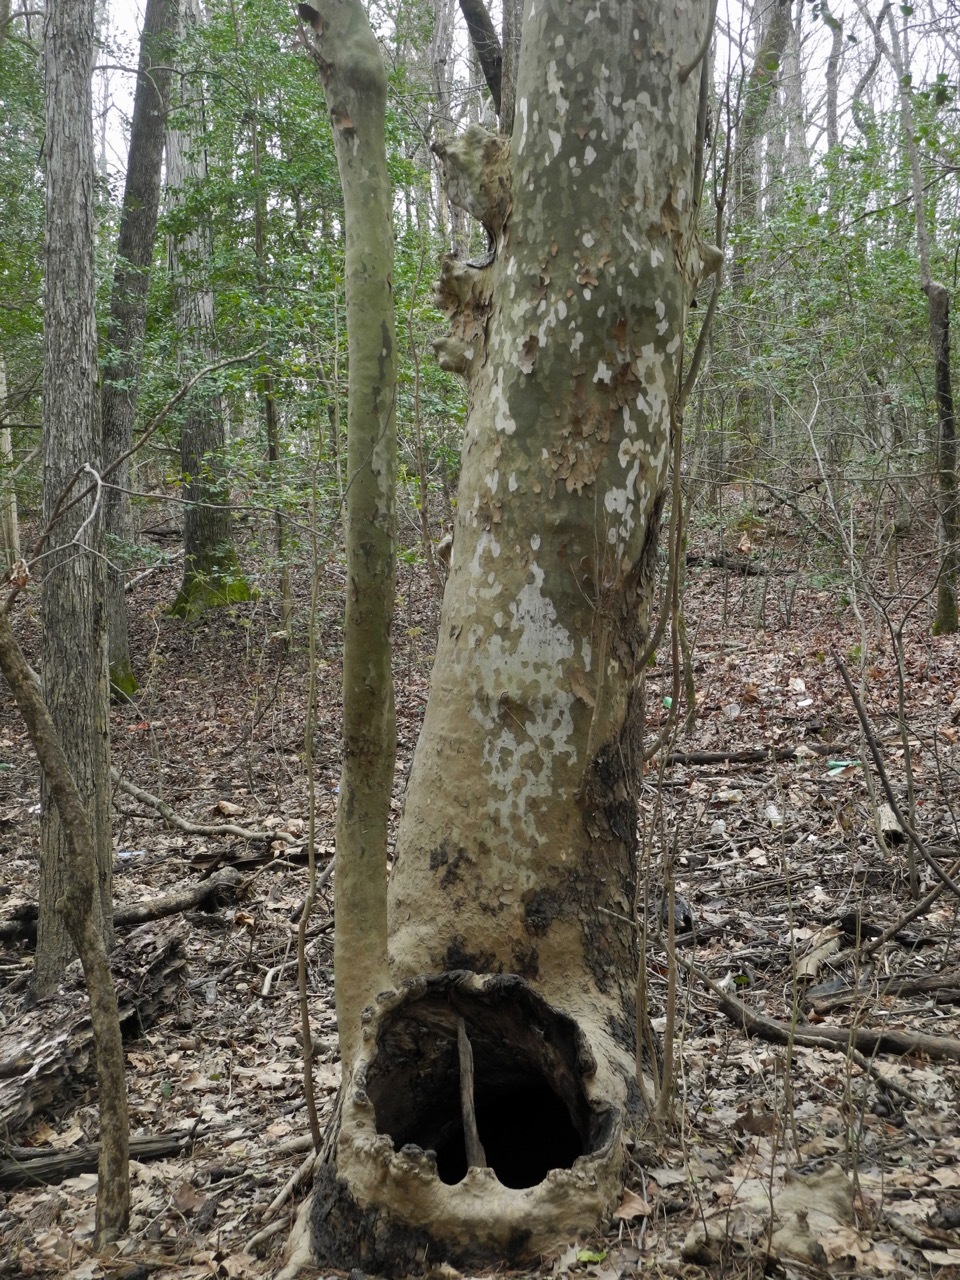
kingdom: Plantae
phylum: Tracheophyta
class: Magnoliopsida
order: Proteales
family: Platanaceae
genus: Platanus
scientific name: Platanus occidentalis
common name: American sycamore
